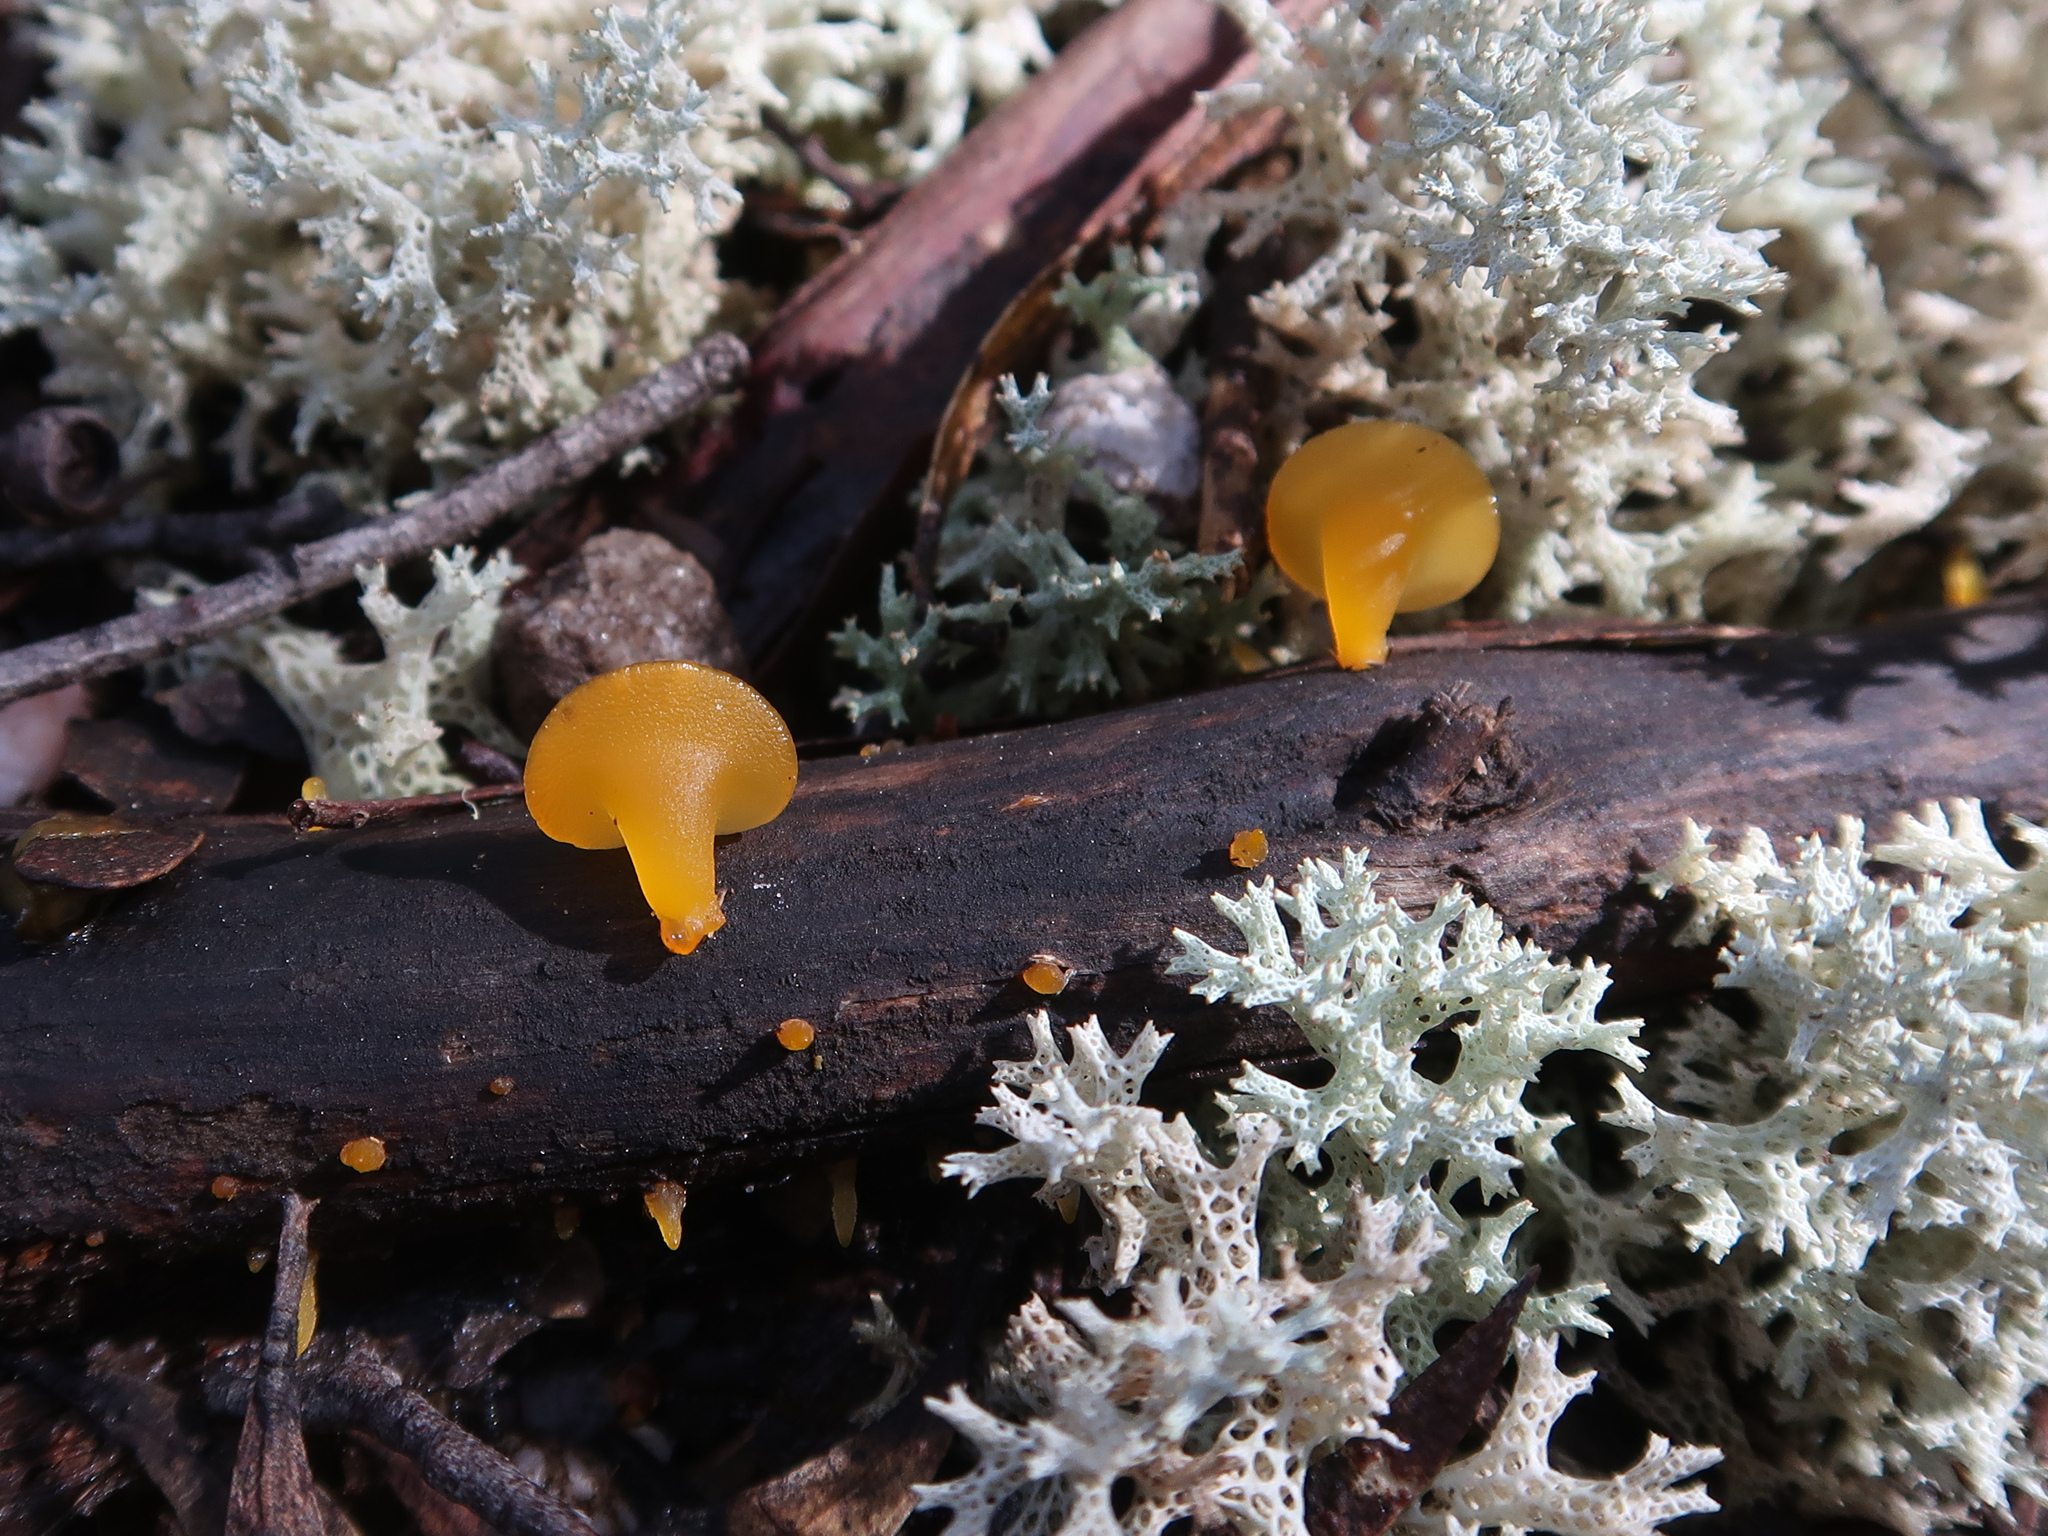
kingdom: Fungi
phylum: Basidiomycota
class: Dacrymycetes
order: Dacrymycetales
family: Dacrymycetaceae
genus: Heterotextus
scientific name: Heterotextus peziziformis
